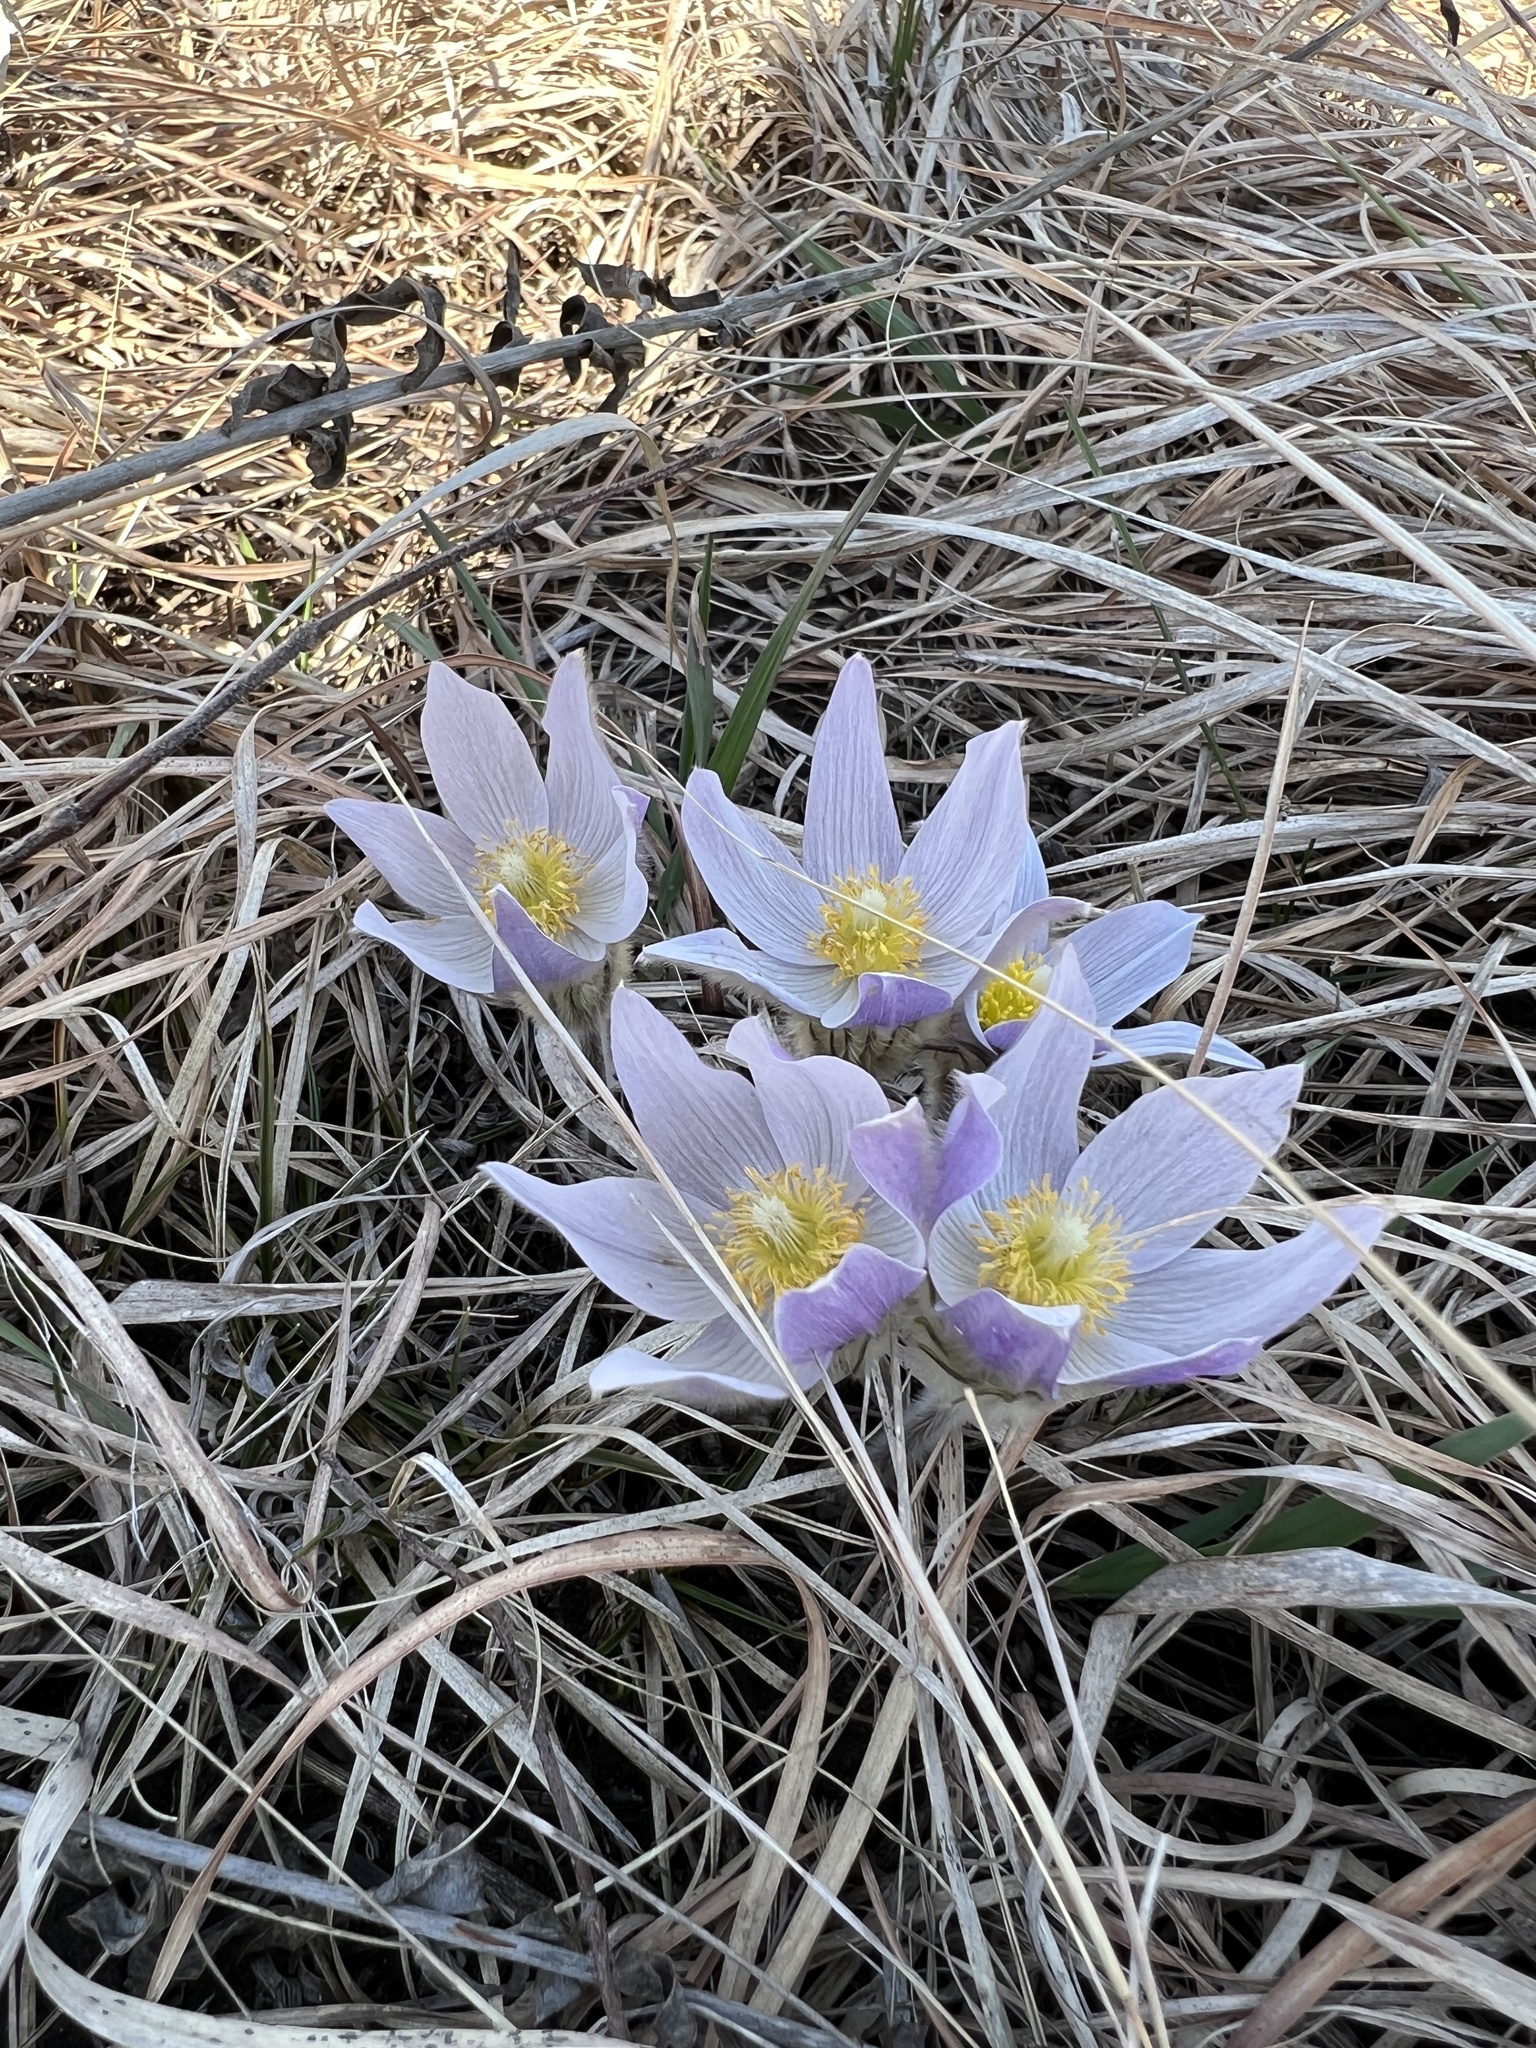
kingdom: Plantae
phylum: Tracheophyta
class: Magnoliopsida
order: Ranunculales
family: Ranunculaceae
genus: Pulsatilla
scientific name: Pulsatilla nuttalliana
